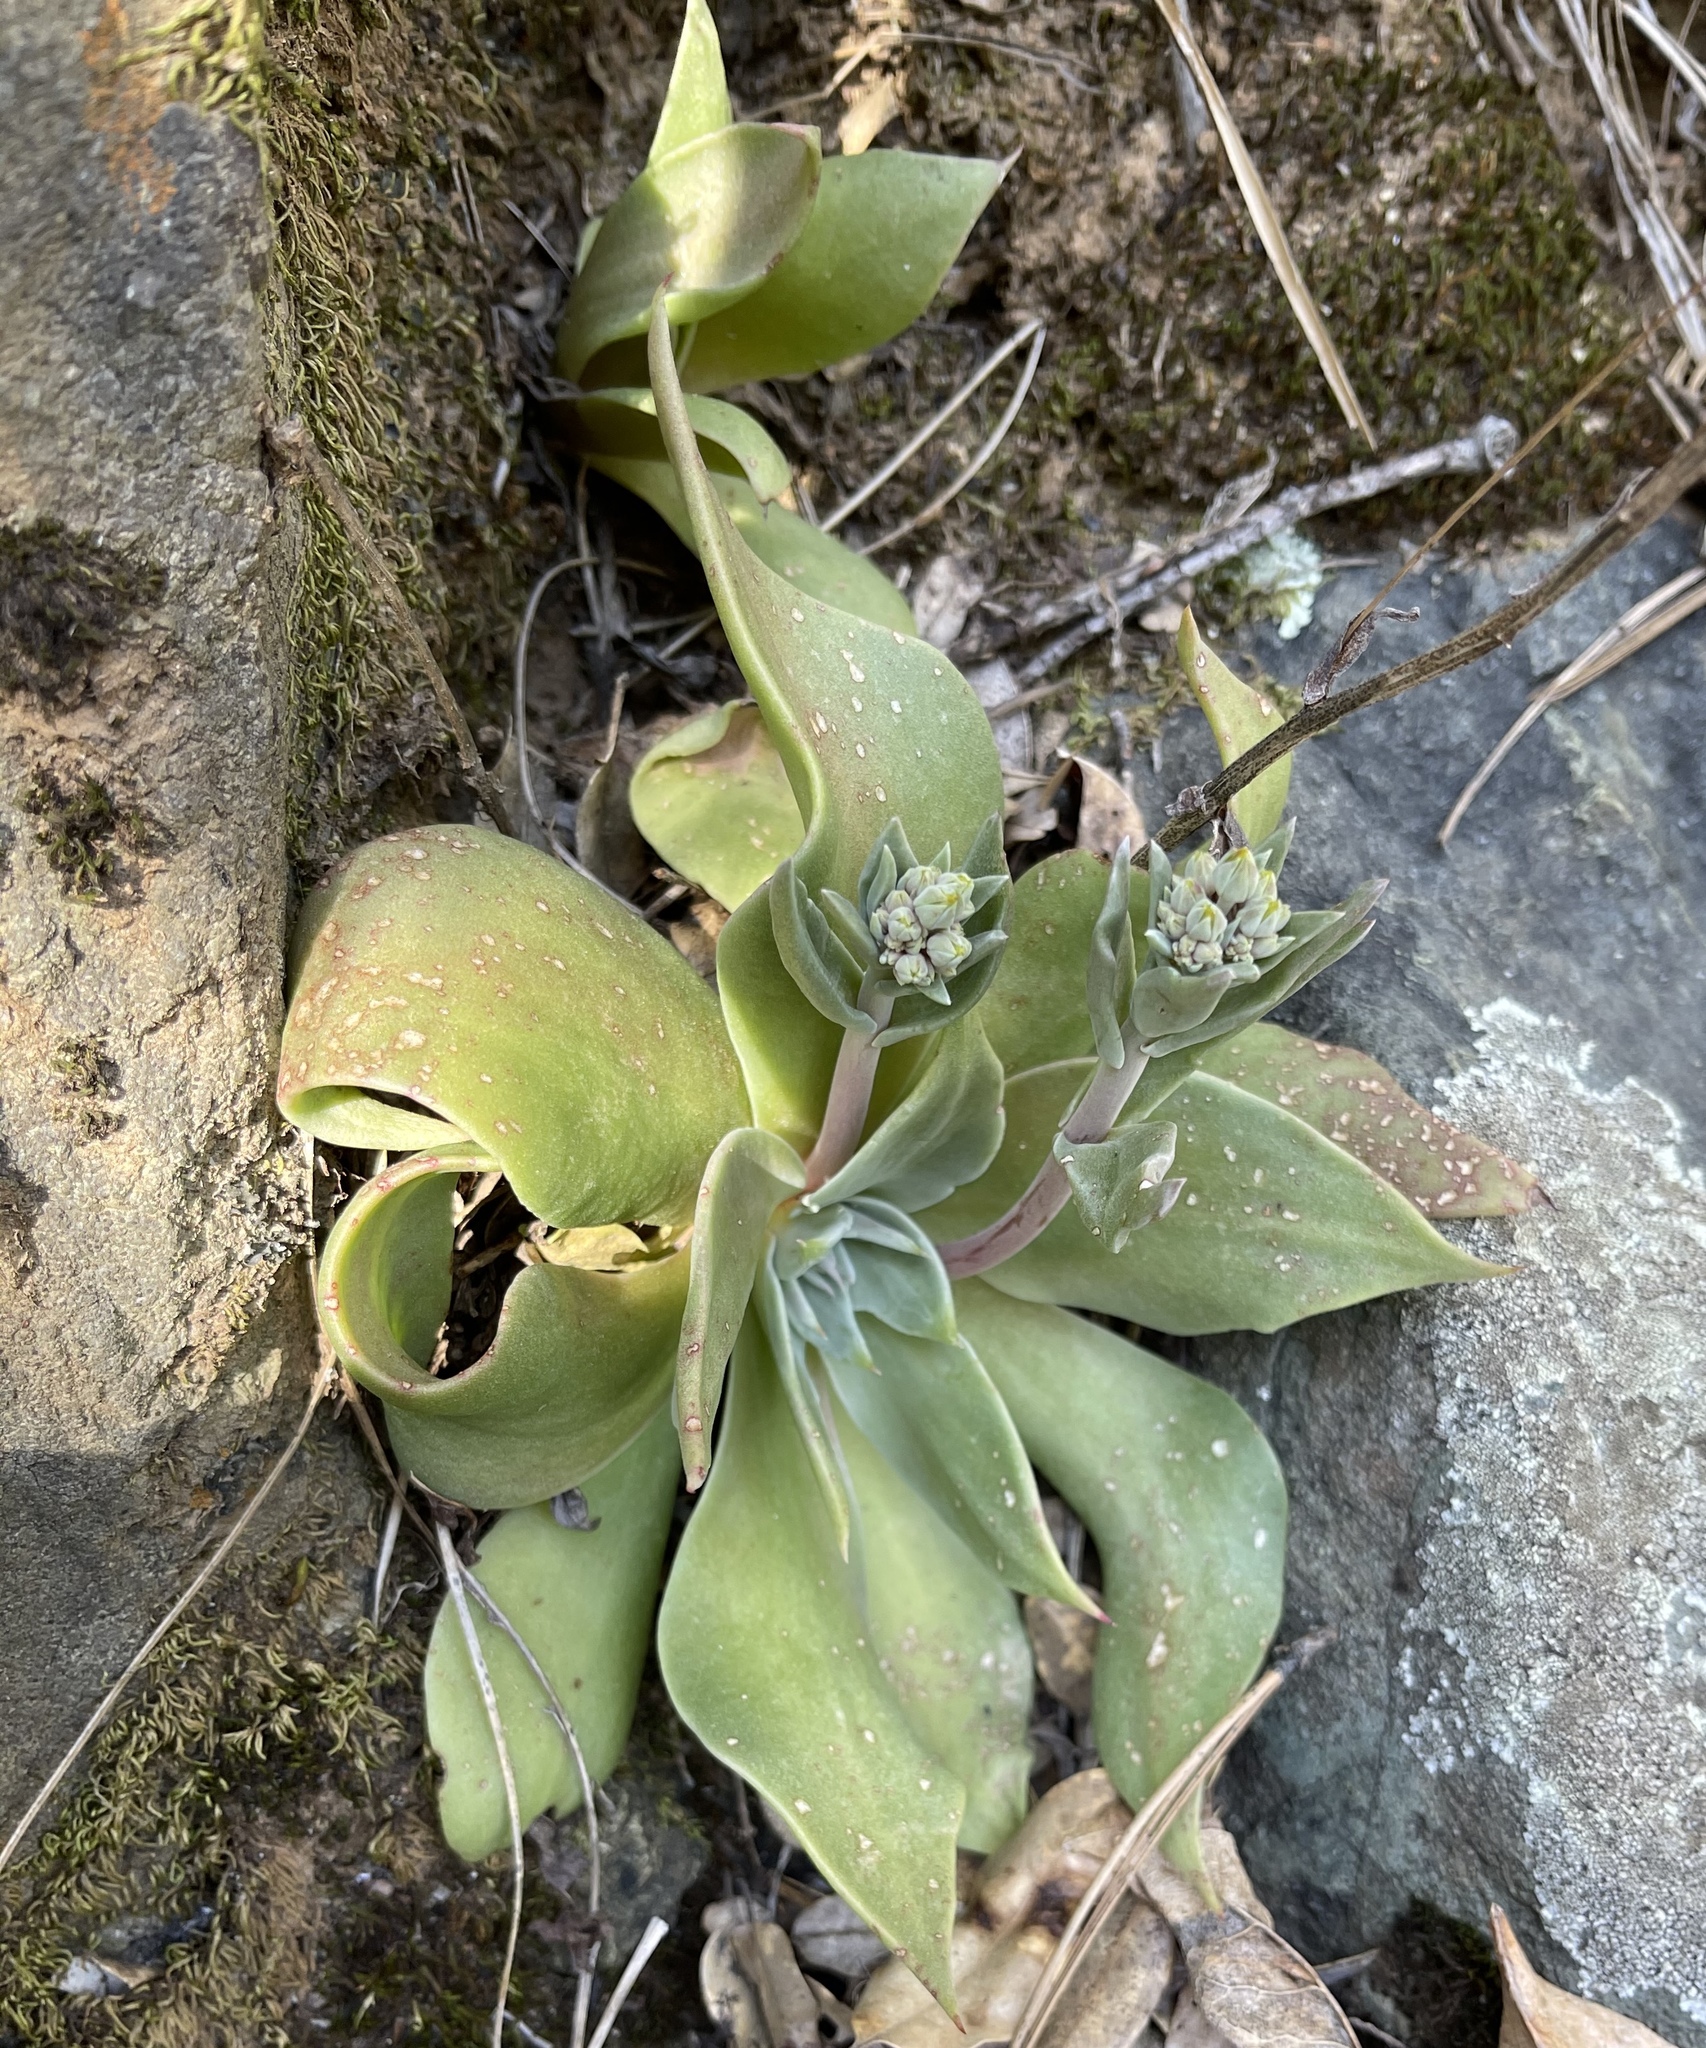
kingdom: Plantae
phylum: Tracheophyta
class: Magnoliopsida
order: Saxifragales
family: Crassulaceae
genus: Dudleya
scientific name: Dudleya cymosa
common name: Canyon dudleya
